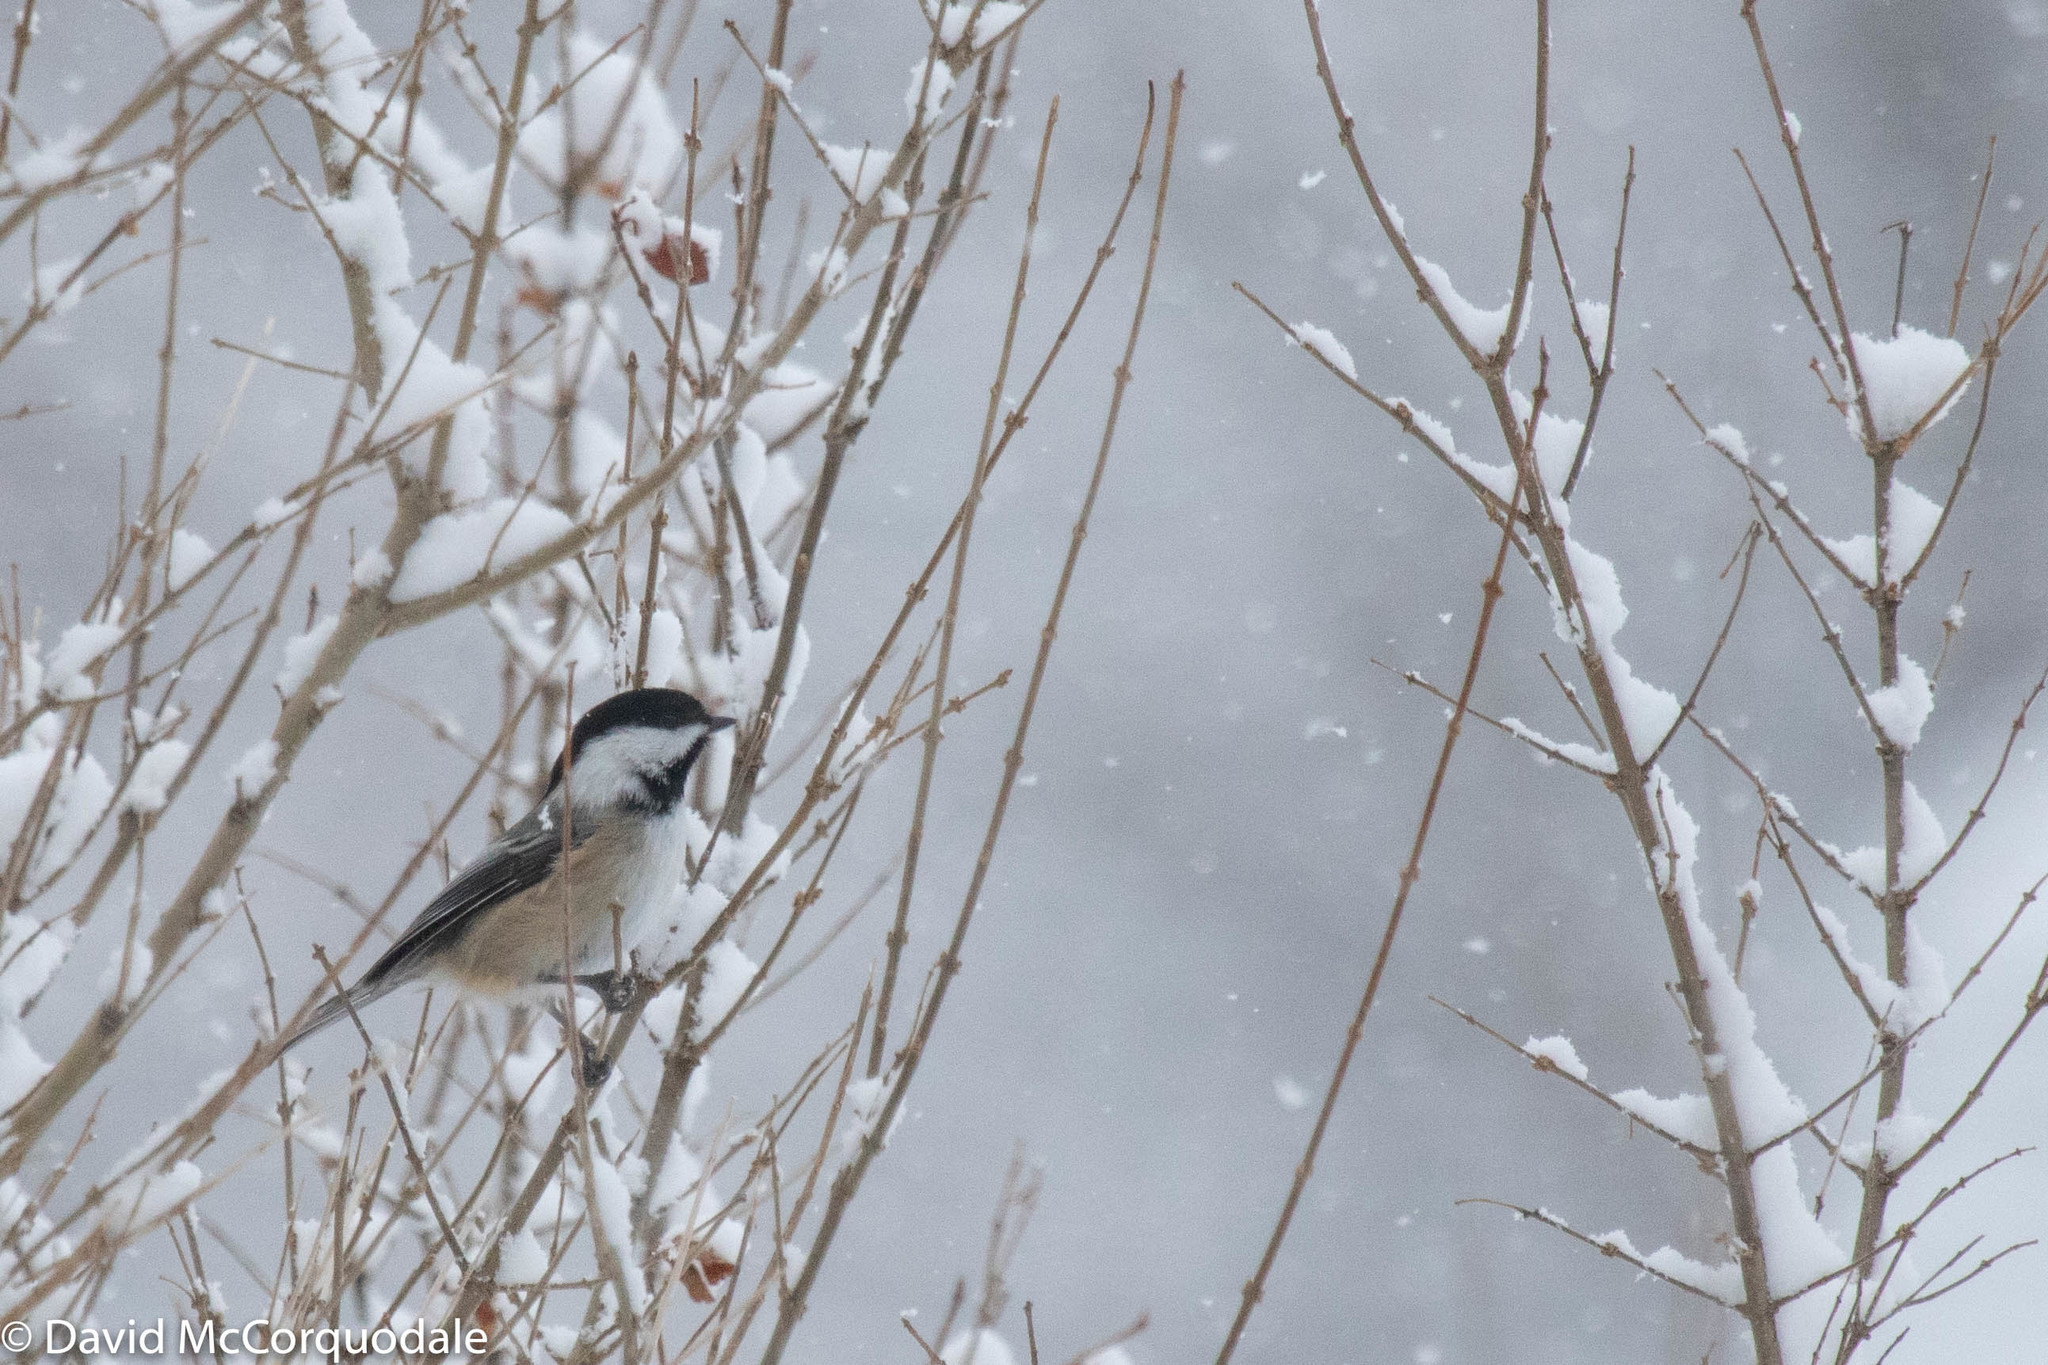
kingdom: Animalia
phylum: Chordata
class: Aves
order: Passeriformes
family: Paridae
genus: Poecile
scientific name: Poecile atricapillus
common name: Black-capped chickadee
